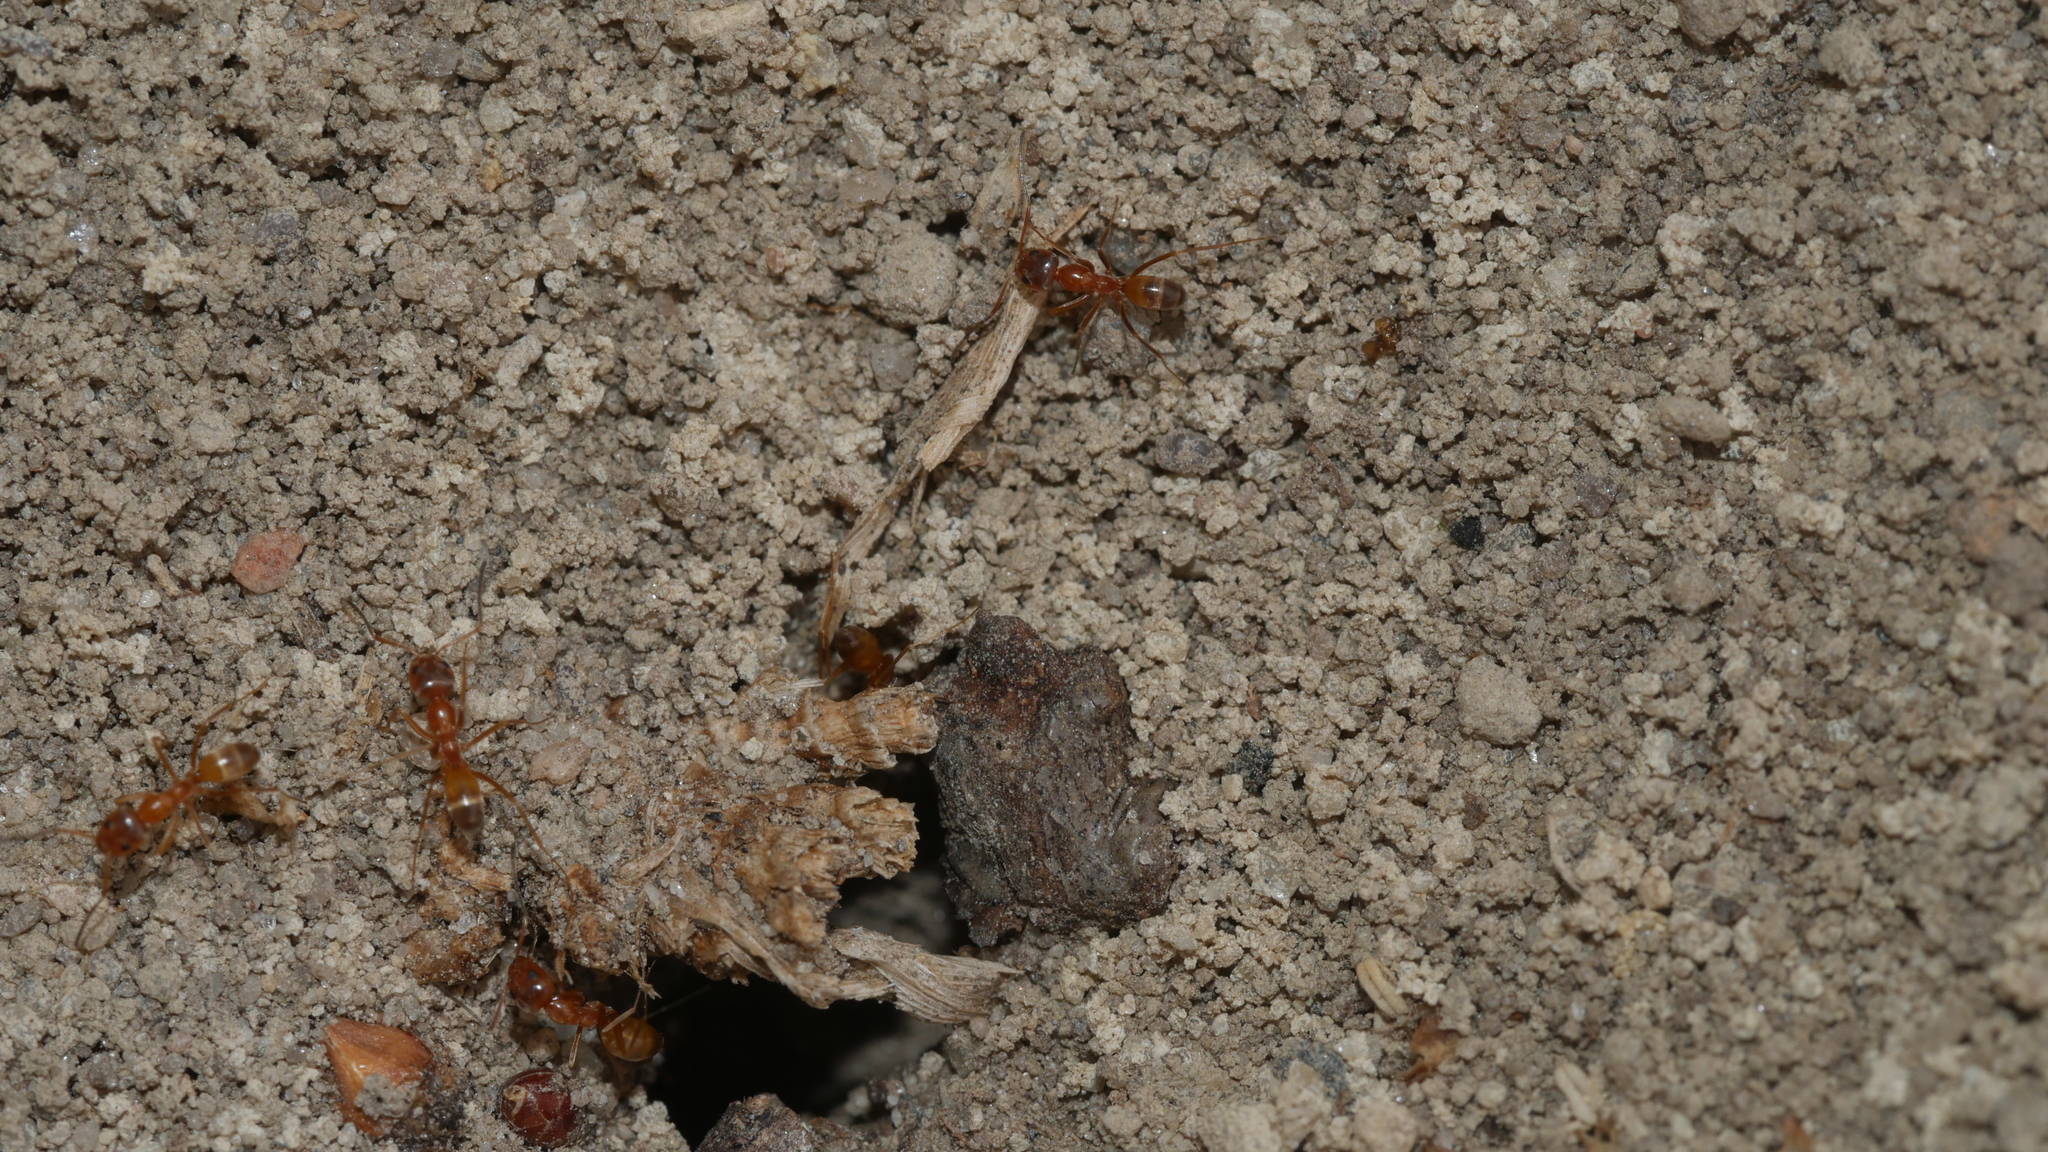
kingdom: Animalia
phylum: Arthropoda
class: Insecta
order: Hymenoptera
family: Formicidae
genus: Dorymyrmex
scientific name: Dorymyrmex bureni
